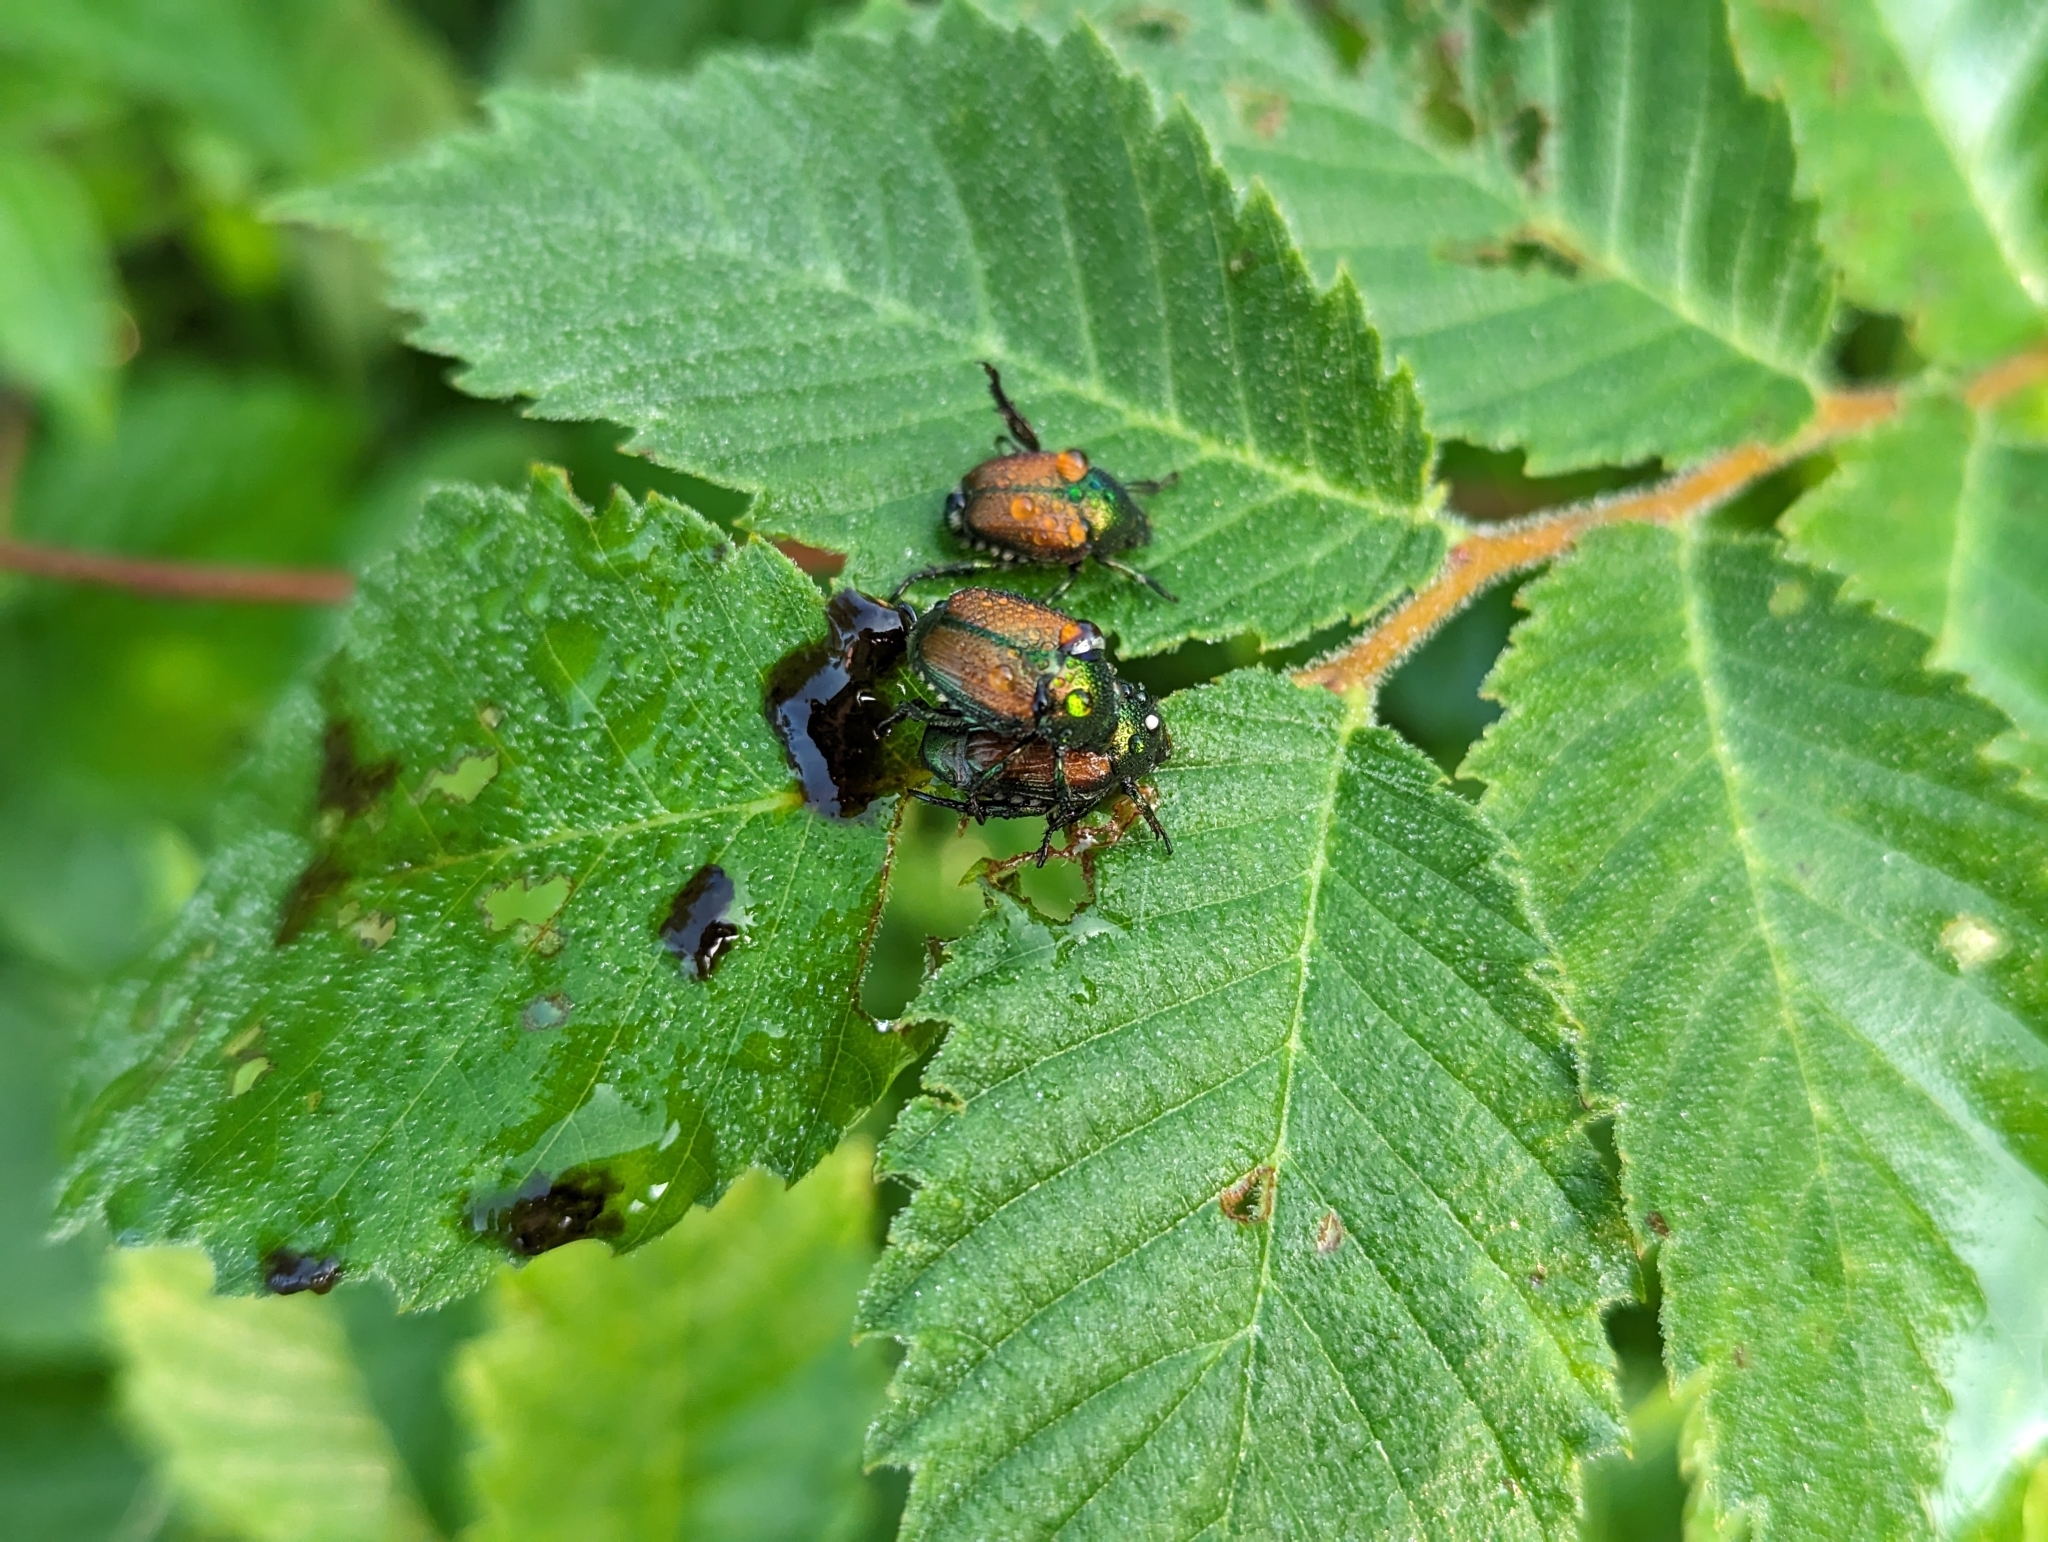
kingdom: Animalia
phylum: Arthropoda
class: Insecta
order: Diptera
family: Tachinidae
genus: Istocheta
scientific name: Istocheta aldrichi
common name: Parasitic wasp
